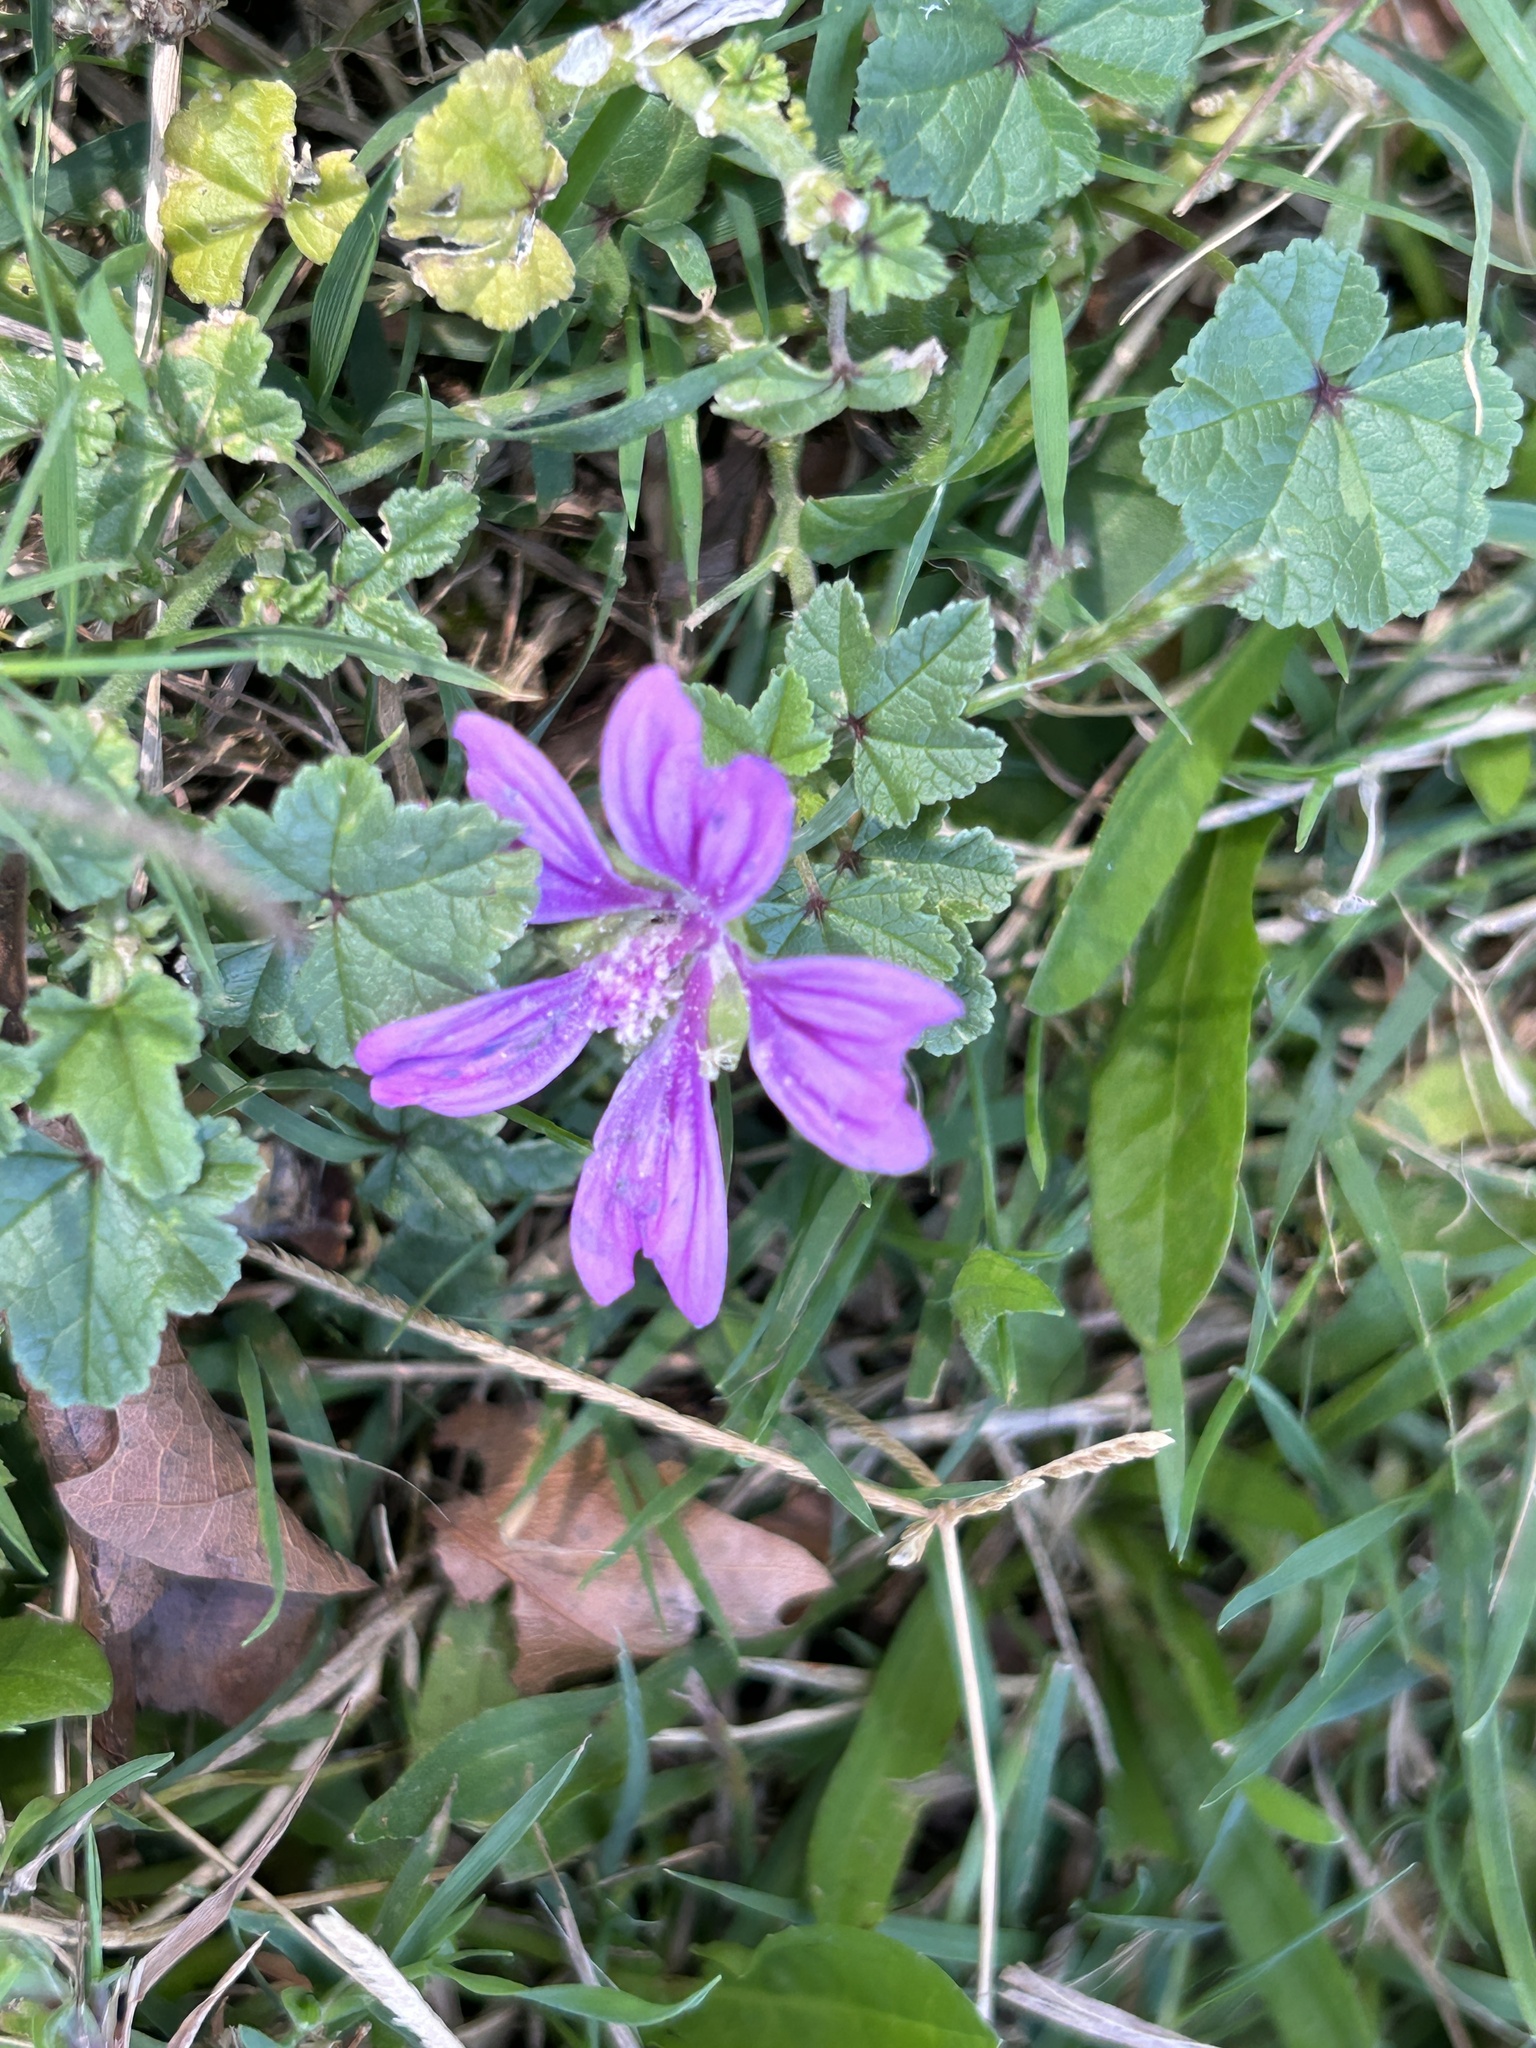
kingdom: Plantae
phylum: Tracheophyta
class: Magnoliopsida
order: Malvales
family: Malvaceae
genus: Malva
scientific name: Malva sylvestris
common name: Common mallow
